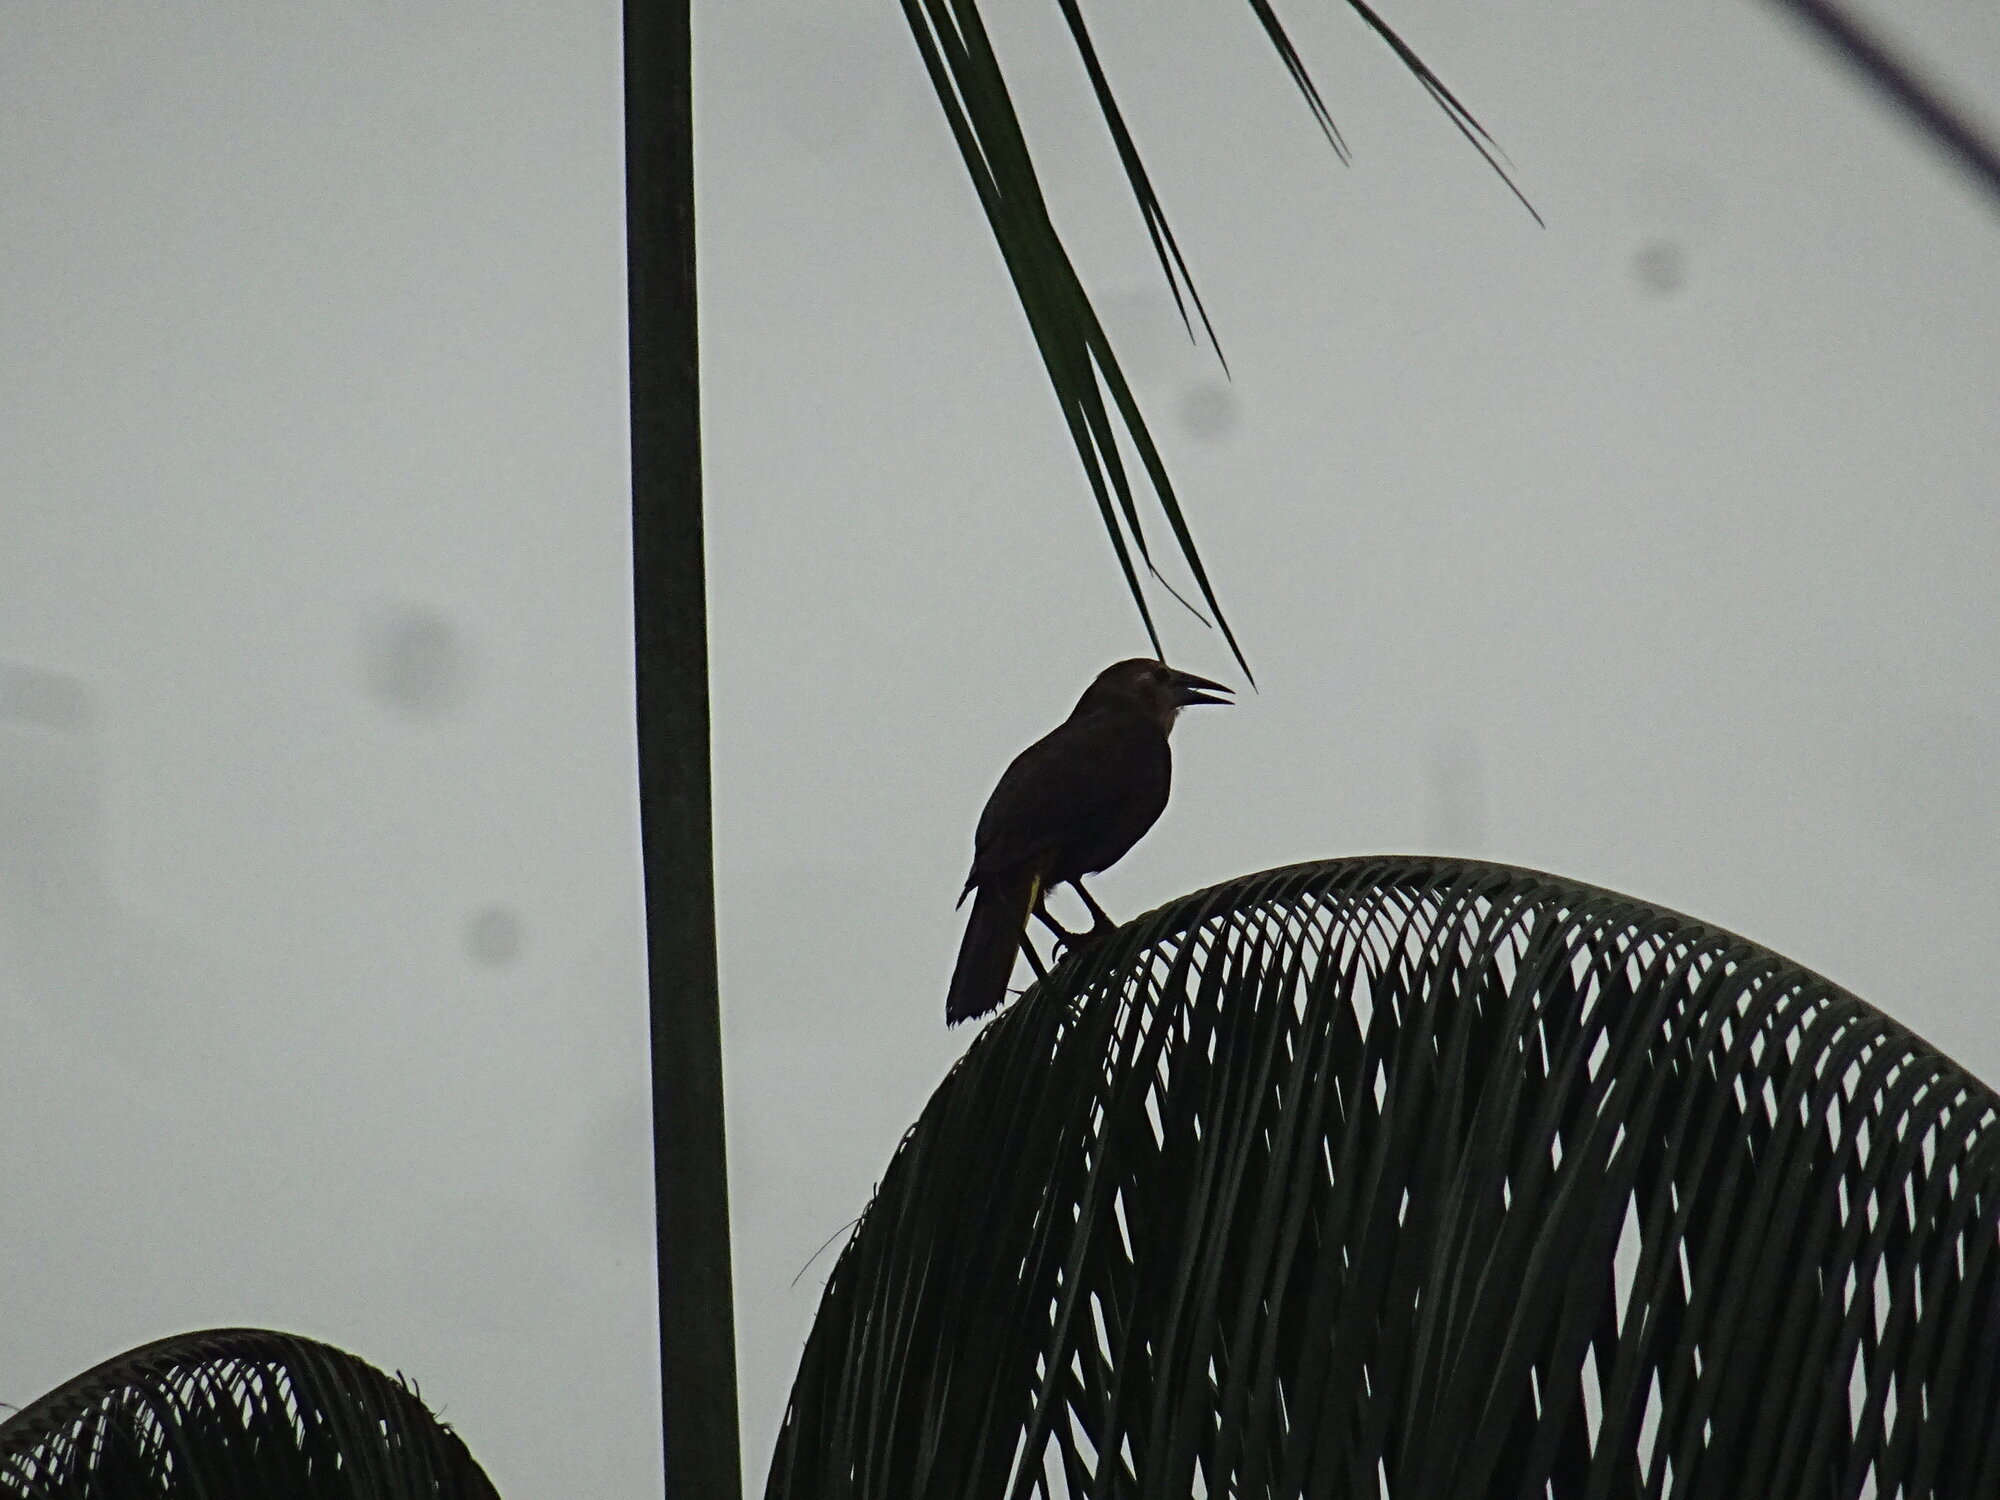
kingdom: Animalia
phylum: Chordata
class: Aves
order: Passeriformes
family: Icteridae
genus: Psarocolius
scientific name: Psarocolius angustifrons
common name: Russet-backed oropendola
